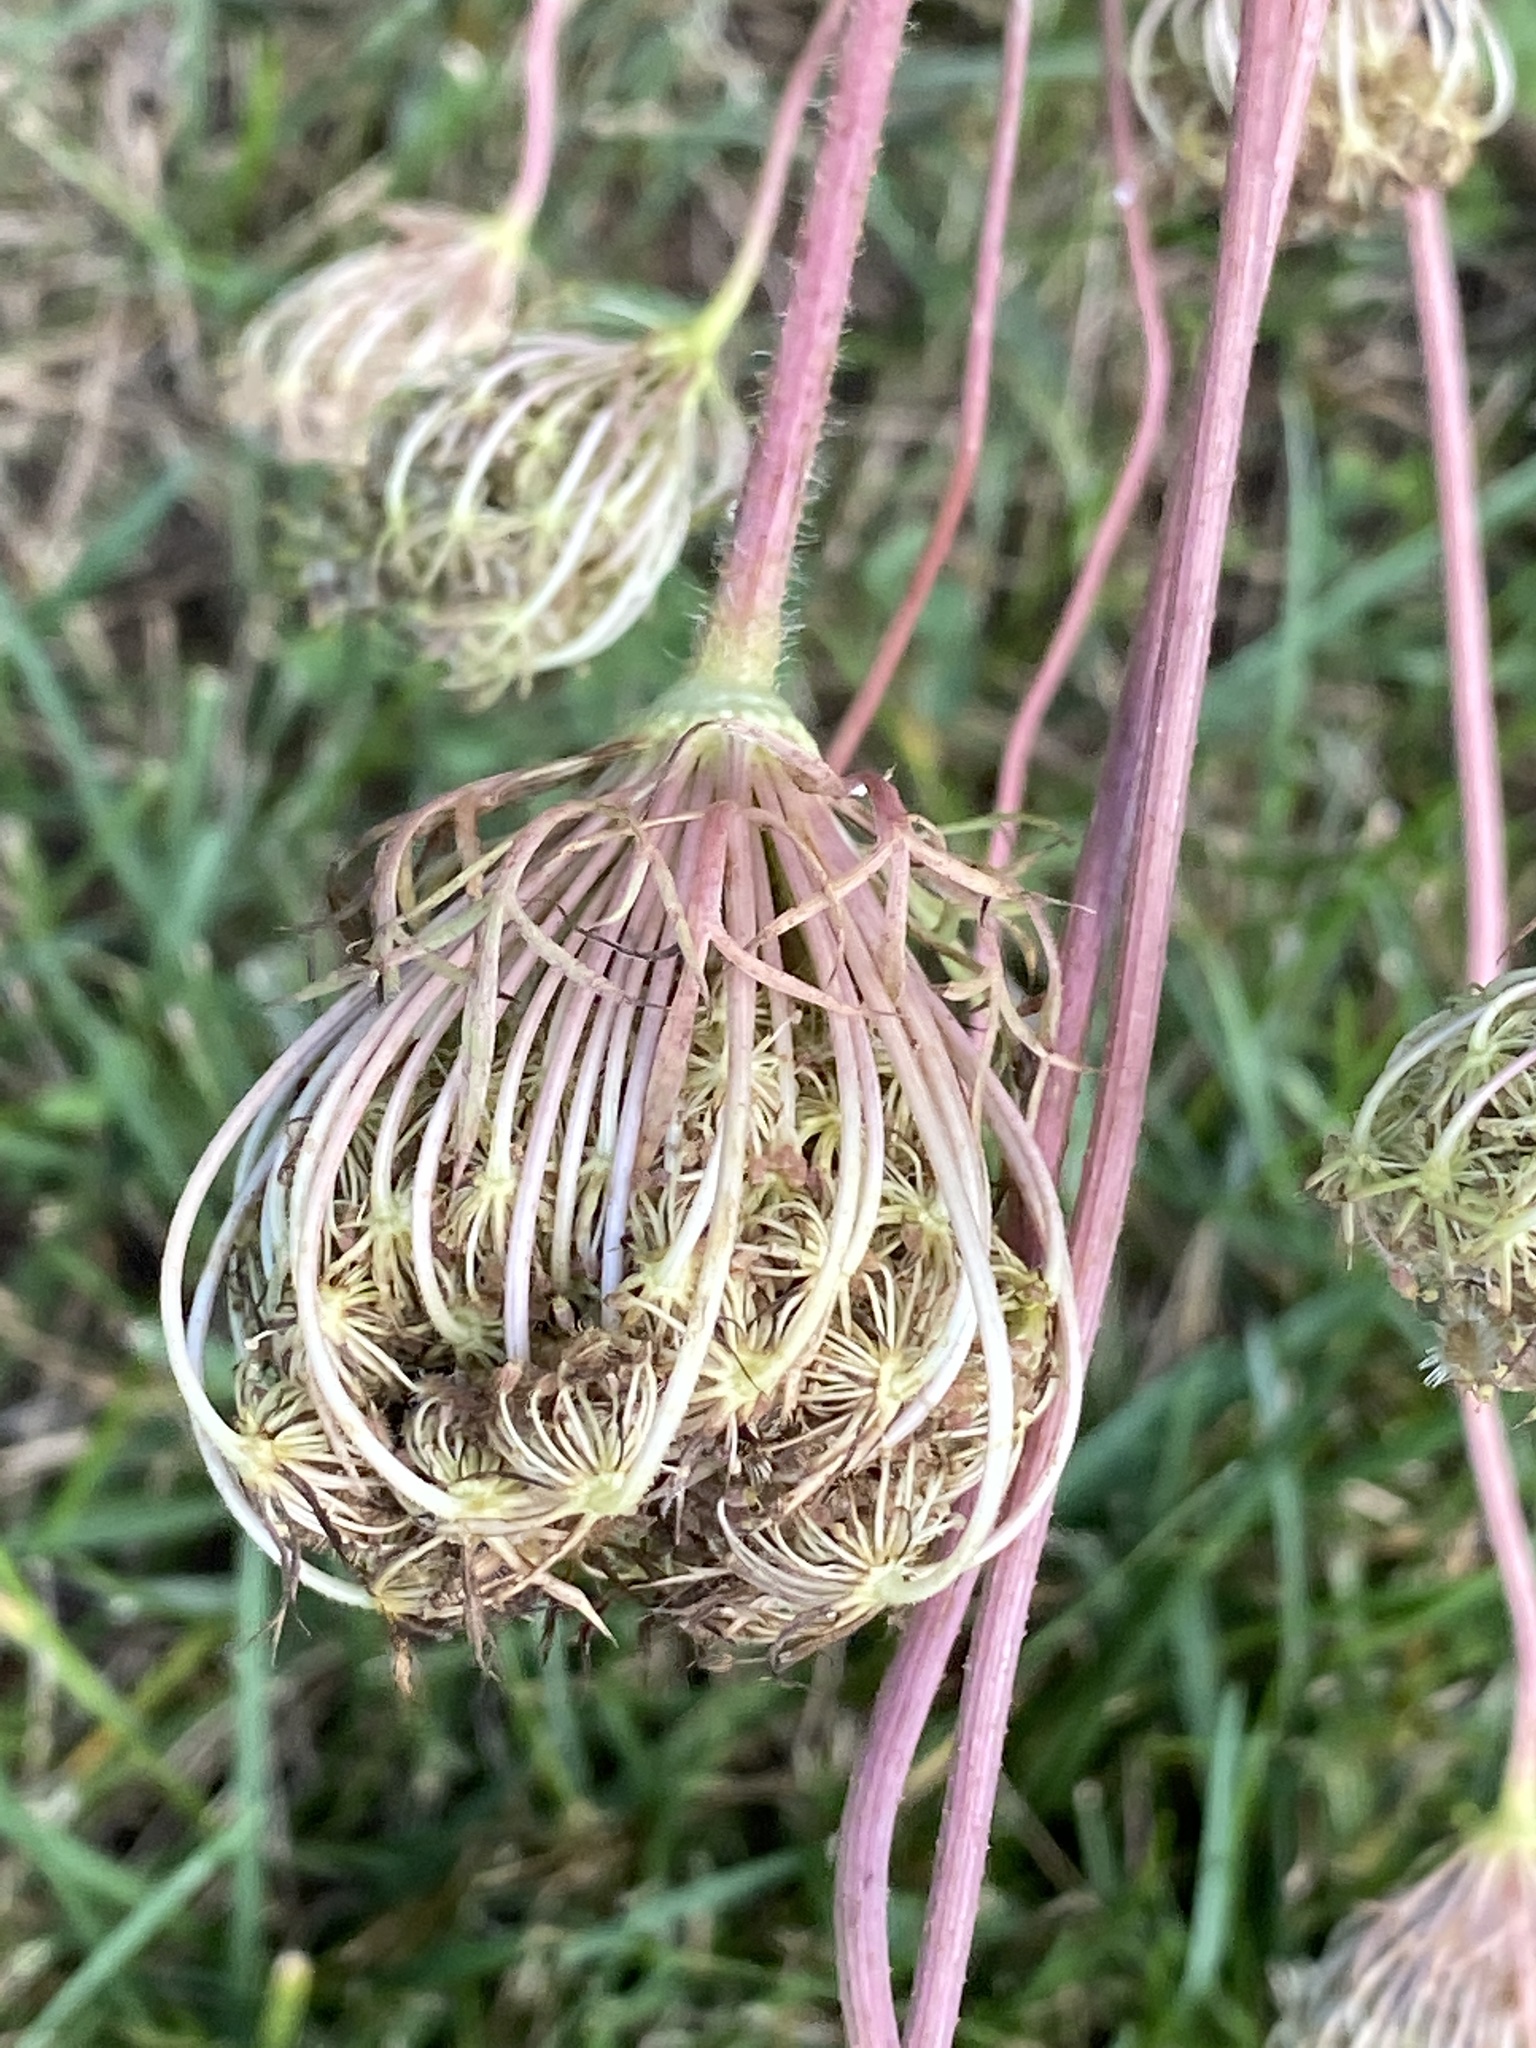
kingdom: Plantae
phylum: Tracheophyta
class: Magnoliopsida
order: Apiales
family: Apiaceae
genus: Daucus
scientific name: Daucus carota
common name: Wild carrot
